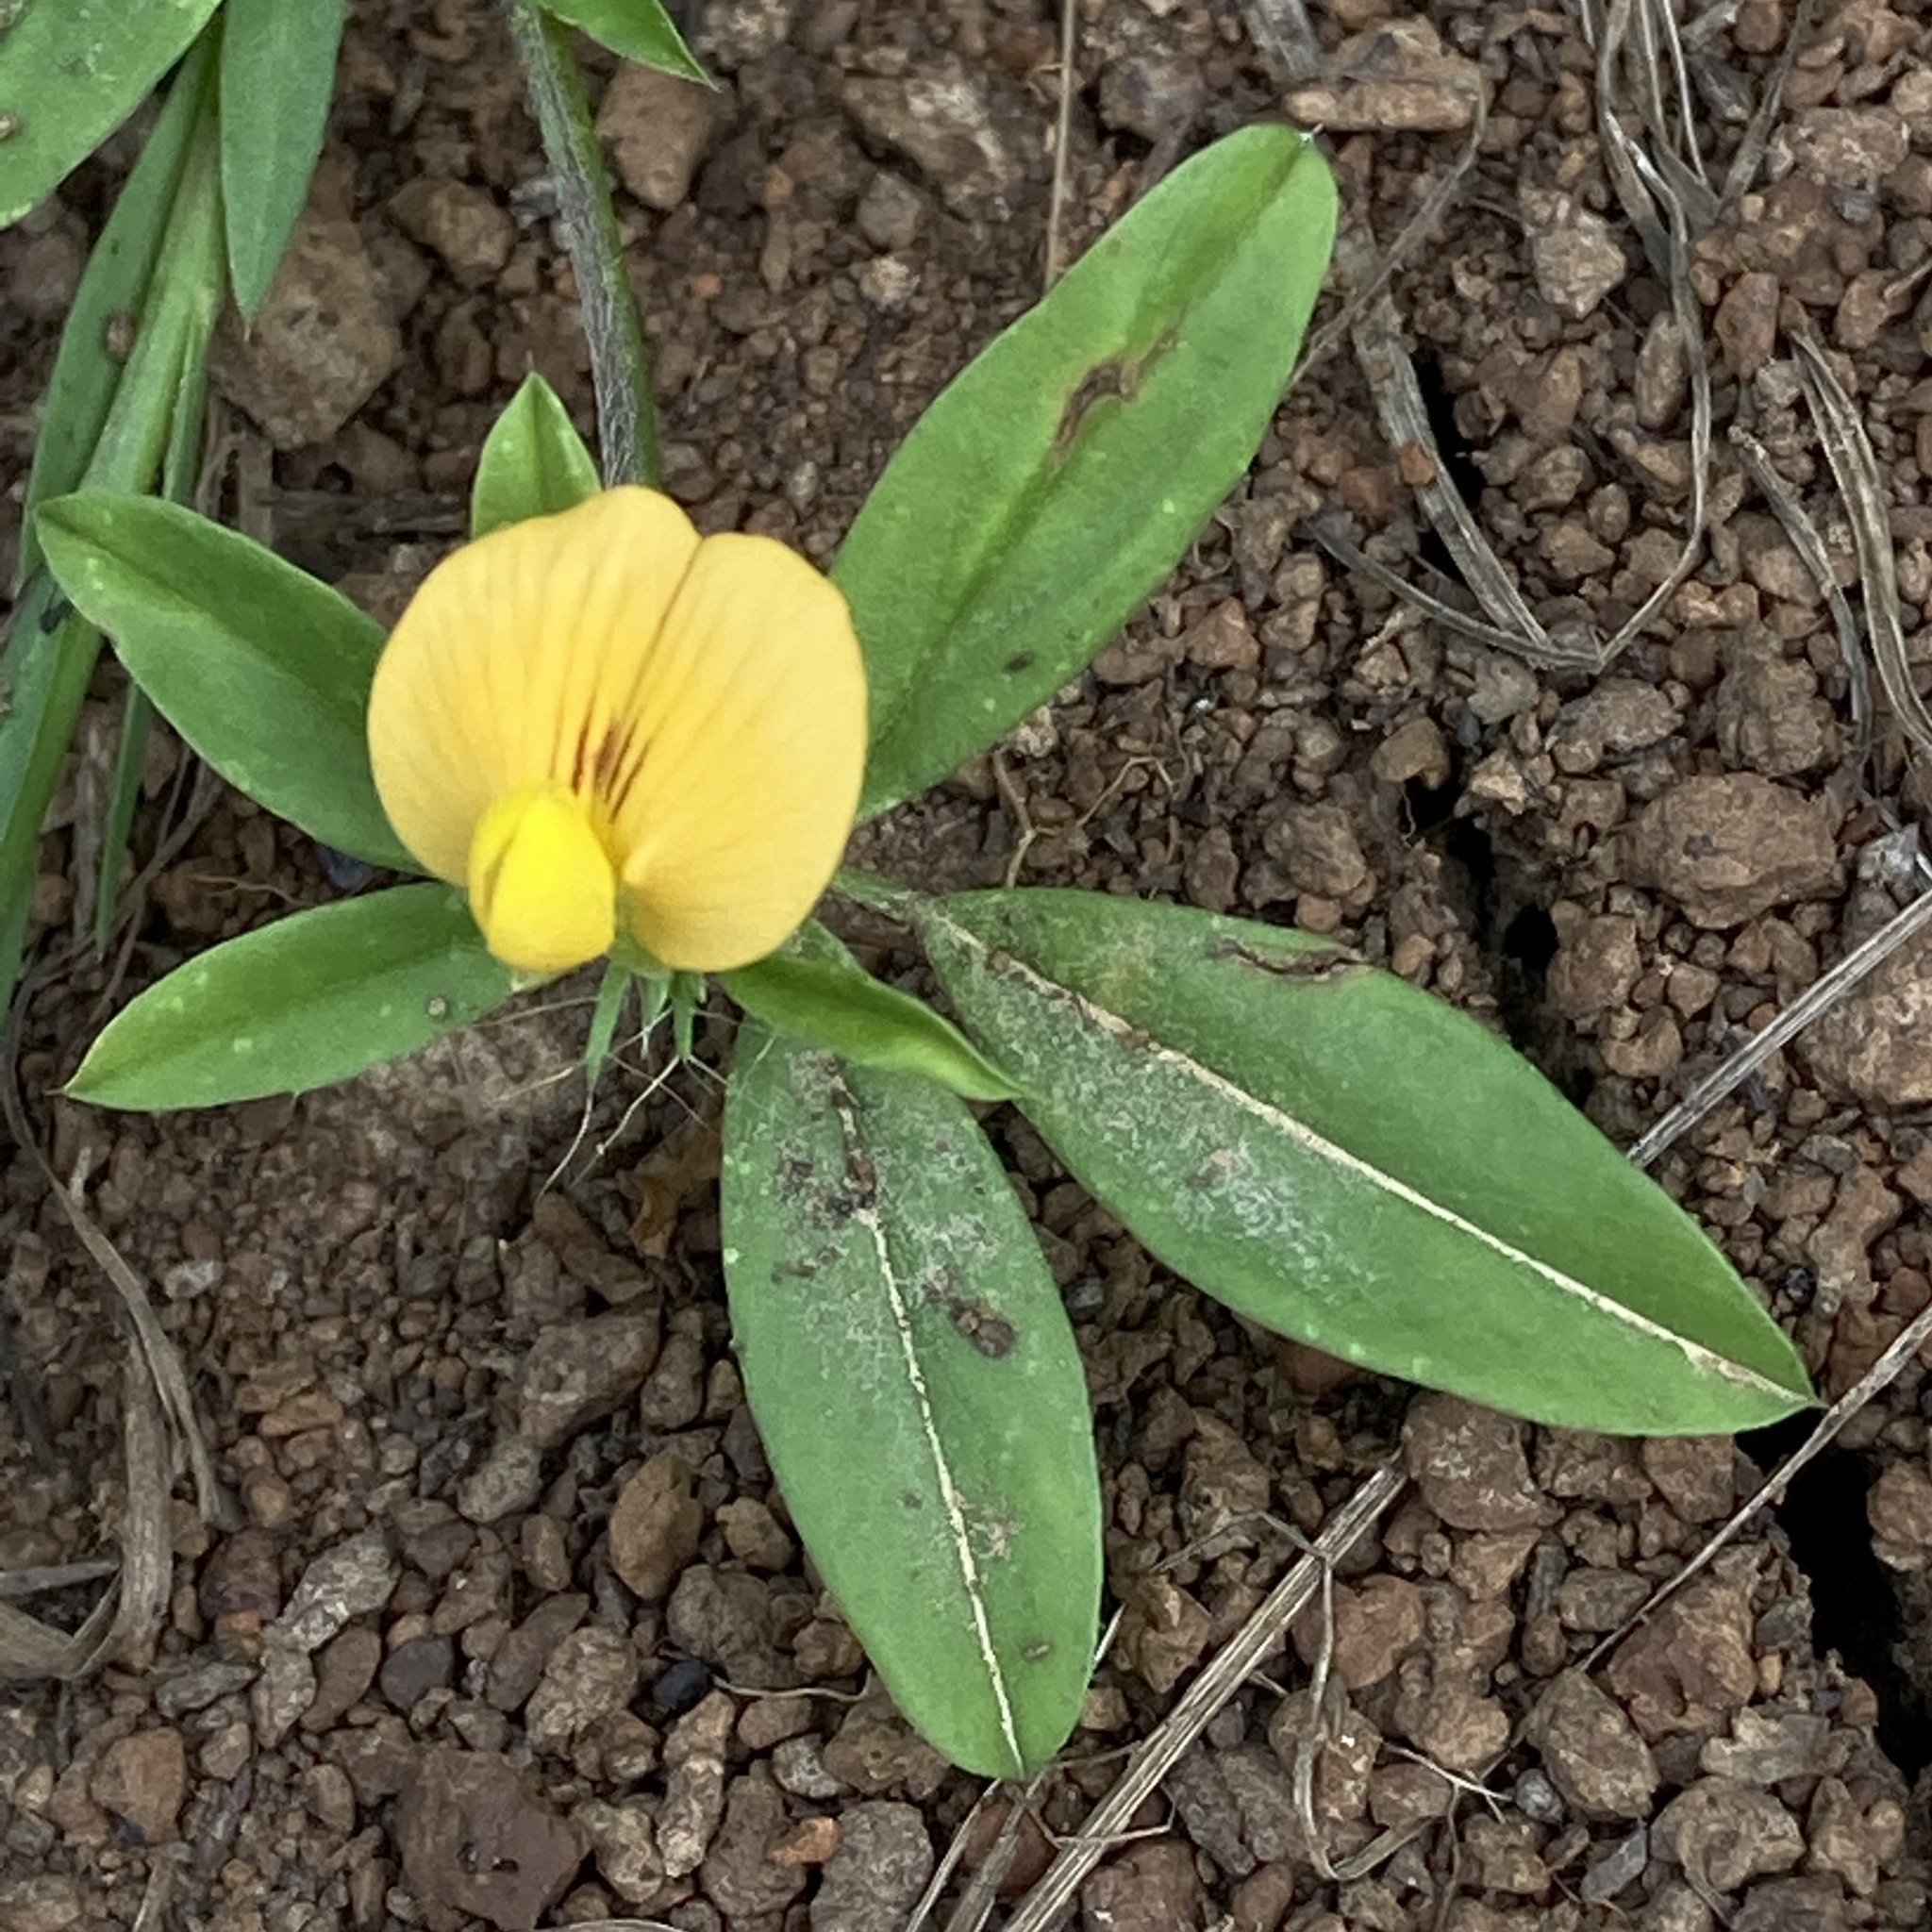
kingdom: Plantae
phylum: Tracheophyta
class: Magnoliopsida
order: Fabales
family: Fabaceae
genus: Stylosanthes
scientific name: Stylosanthes biflora
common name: Two-flower pencil-flower
